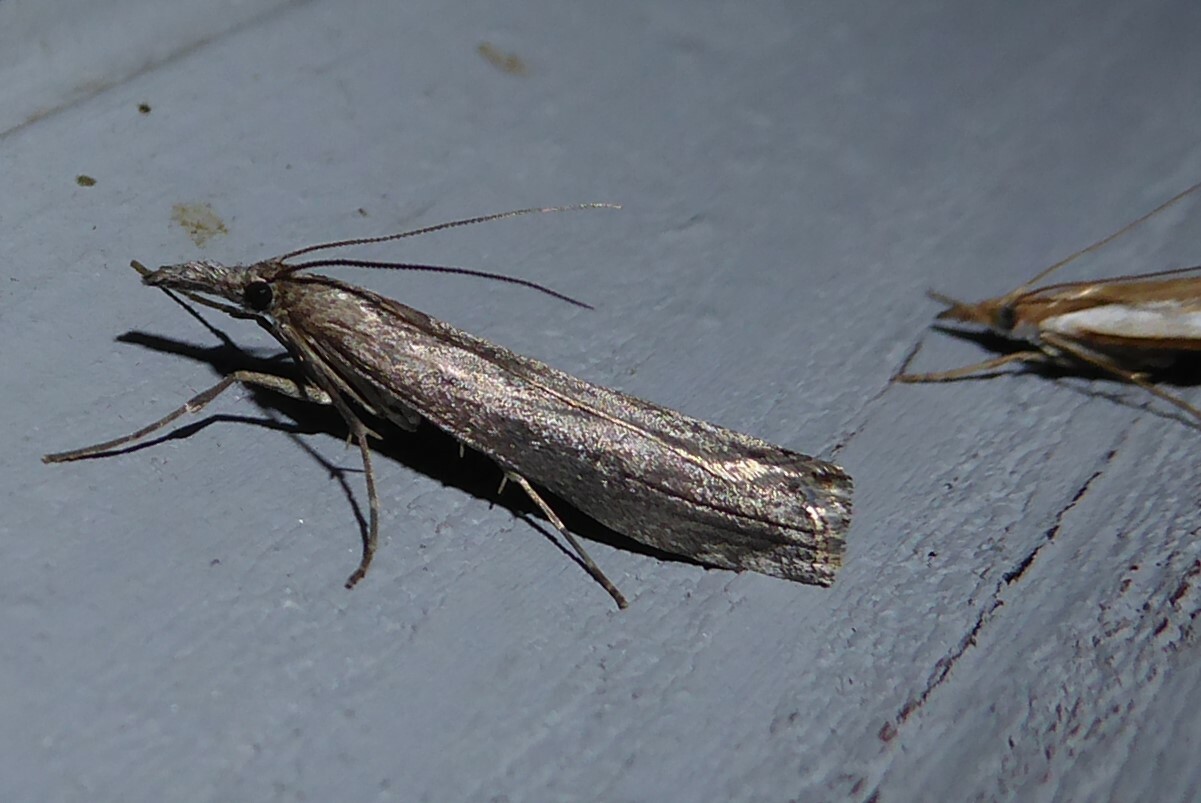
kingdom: Animalia
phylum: Arthropoda
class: Insecta
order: Lepidoptera
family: Crambidae
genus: Orocrambus
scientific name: Orocrambus cyclopicus
